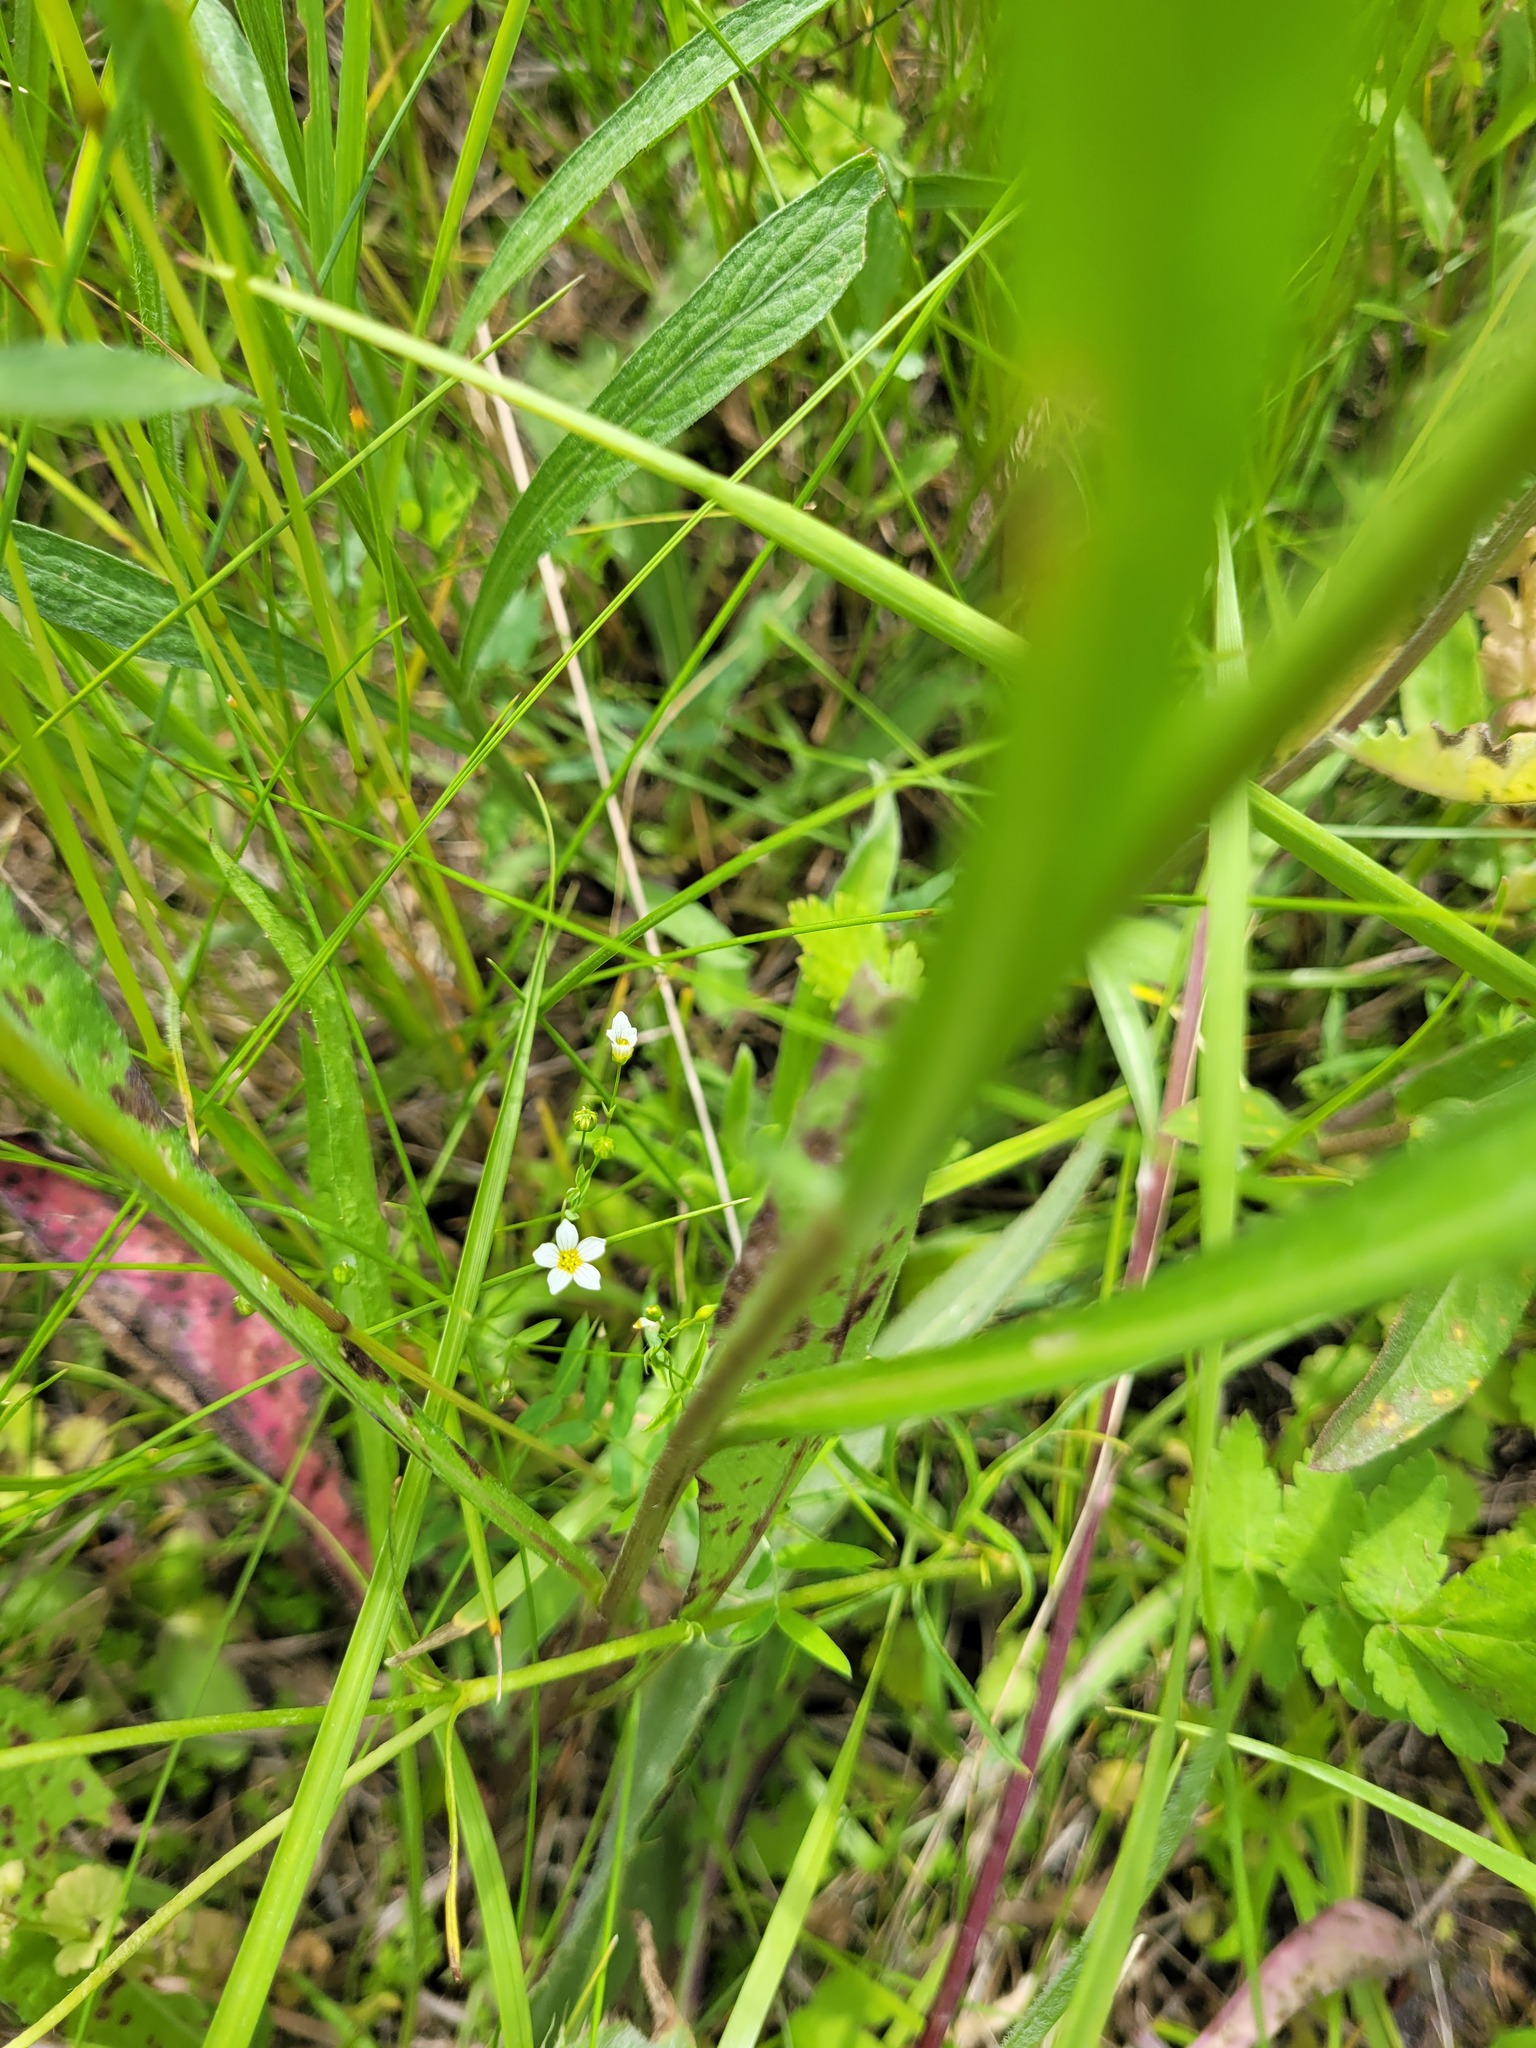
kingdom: Plantae
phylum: Tracheophyta
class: Magnoliopsida
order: Malpighiales
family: Linaceae
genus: Linum
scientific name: Linum catharticum
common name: Fairy flax
